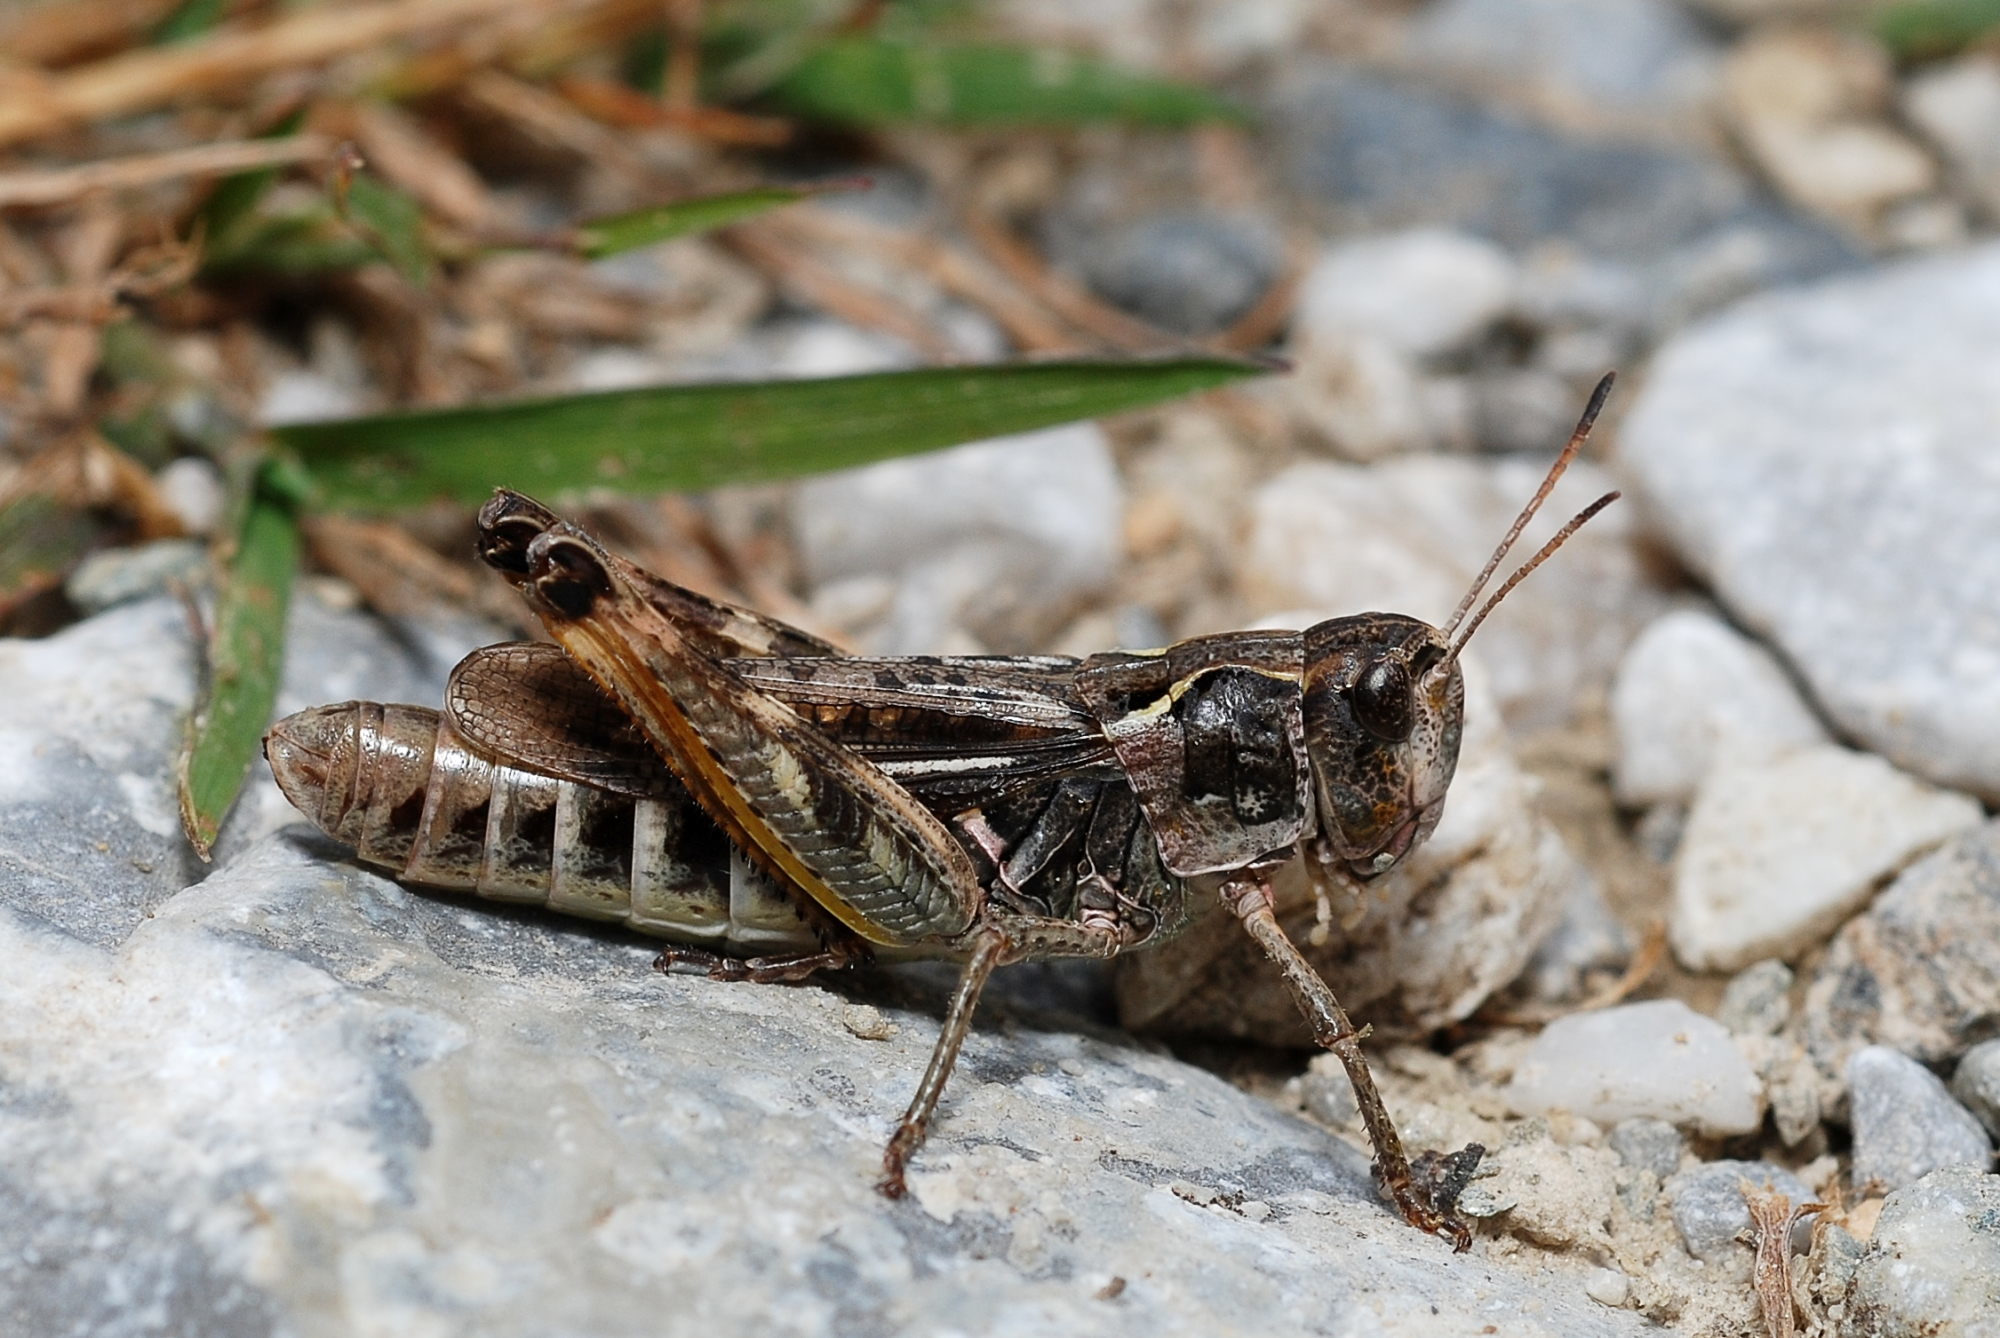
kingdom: Animalia
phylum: Arthropoda
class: Insecta
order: Orthoptera
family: Acrididae
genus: Gomphocerus
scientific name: Gomphocerus sibiricus
